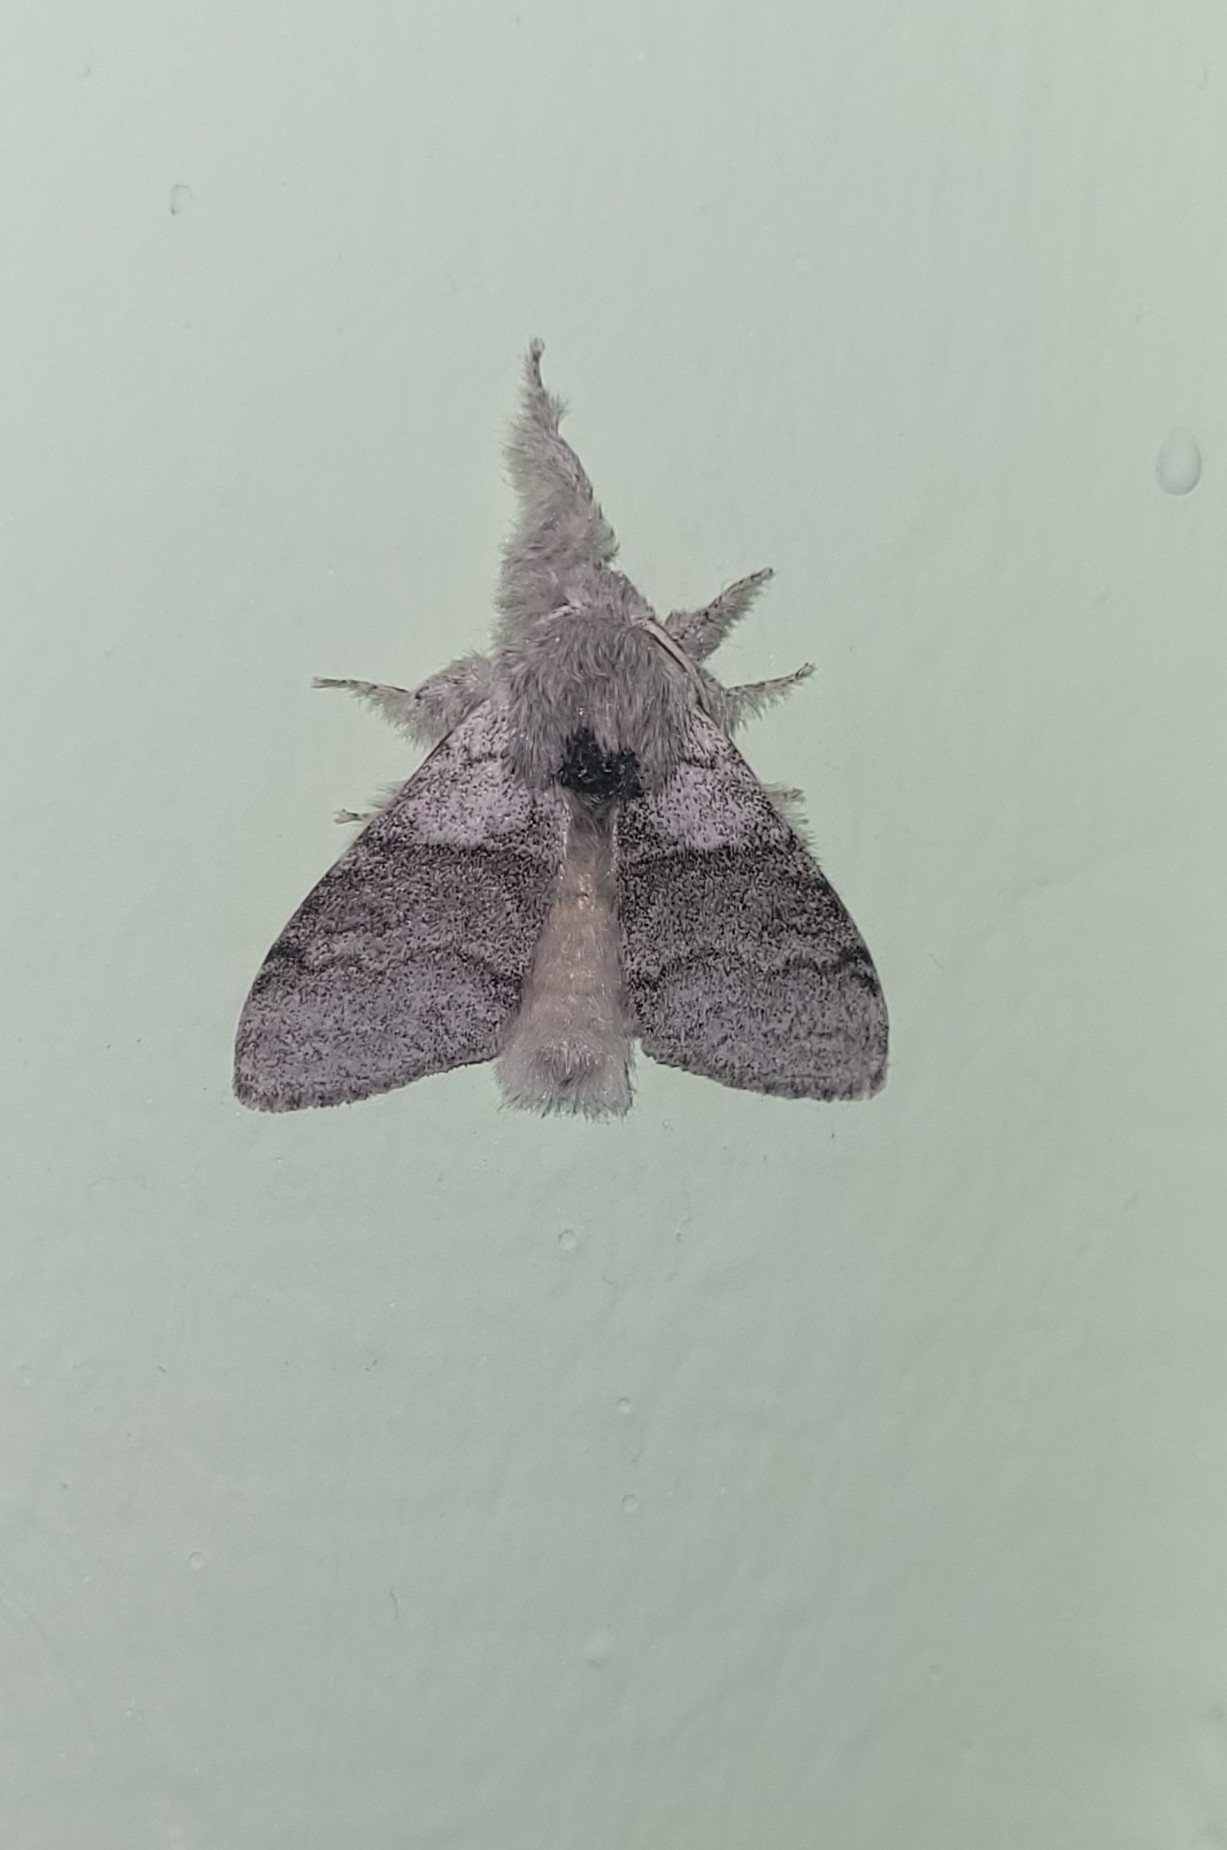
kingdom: Animalia
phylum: Arthropoda
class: Insecta
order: Lepidoptera
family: Erebidae
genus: Calliteara
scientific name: Calliteara pudibunda
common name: Pale tussock
